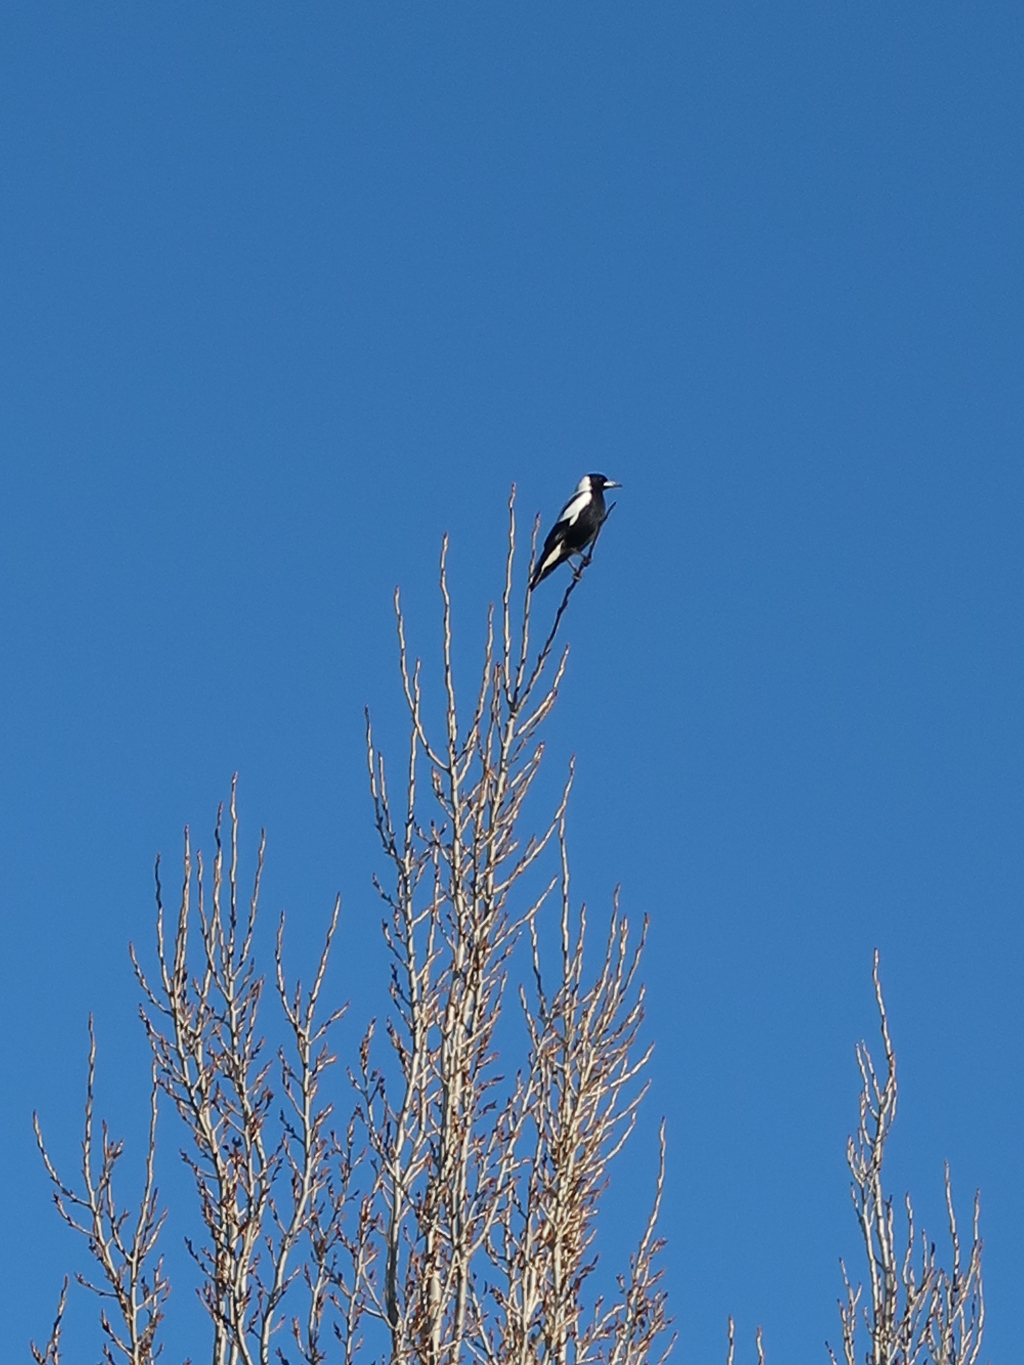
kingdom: Animalia
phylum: Chordata
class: Aves
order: Passeriformes
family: Cracticidae
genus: Gymnorhina
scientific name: Gymnorhina tibicen
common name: Australian magpie
